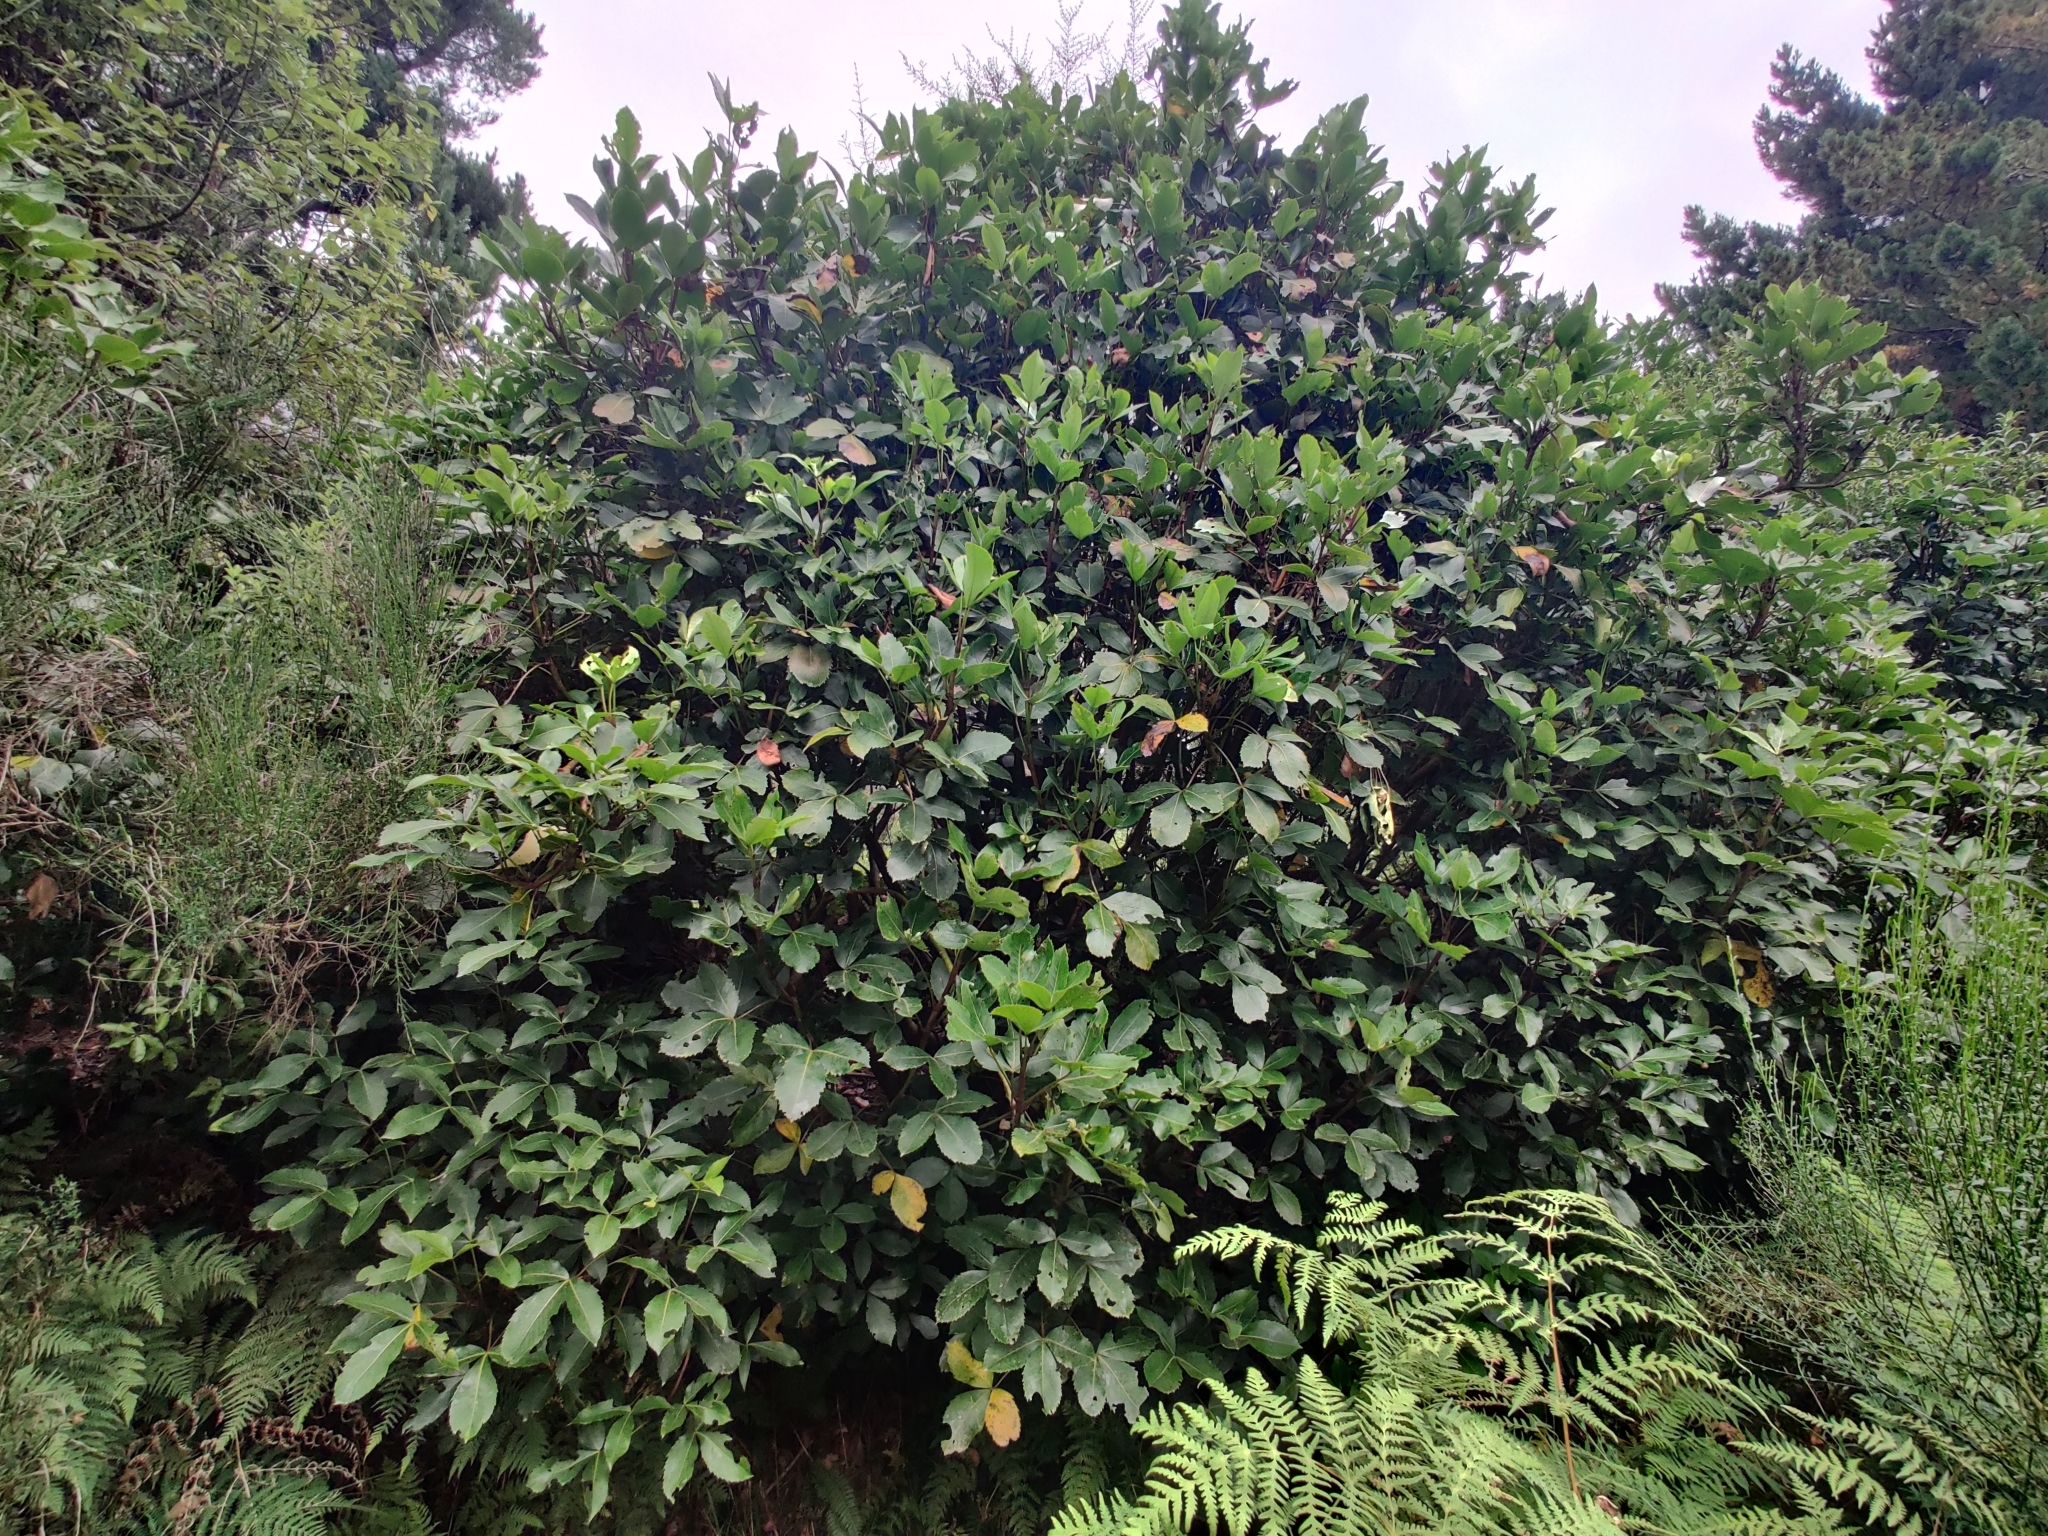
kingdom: Plantae
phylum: Tracheophyta
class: Magnoliopsida
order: Apiales
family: Araliaceae
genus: Neopanax
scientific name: Neopanax colensoi
